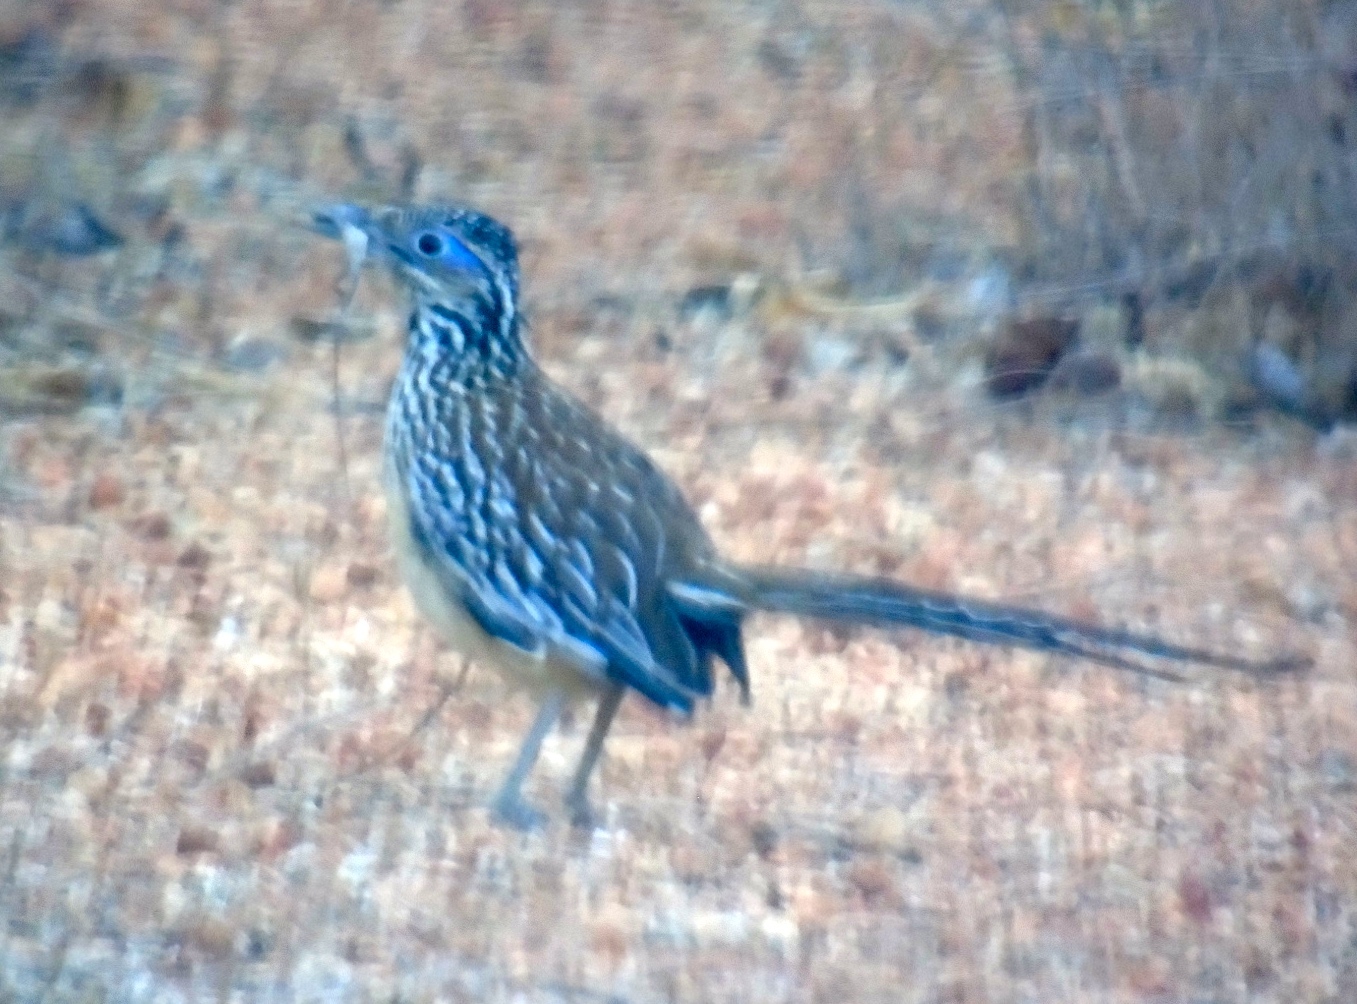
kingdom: Animalia
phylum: Chordata
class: Aves
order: Cuculiformes
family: Cuculidae
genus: Geococcyx
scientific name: Geococcyx velox
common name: Lesser roadrunner
